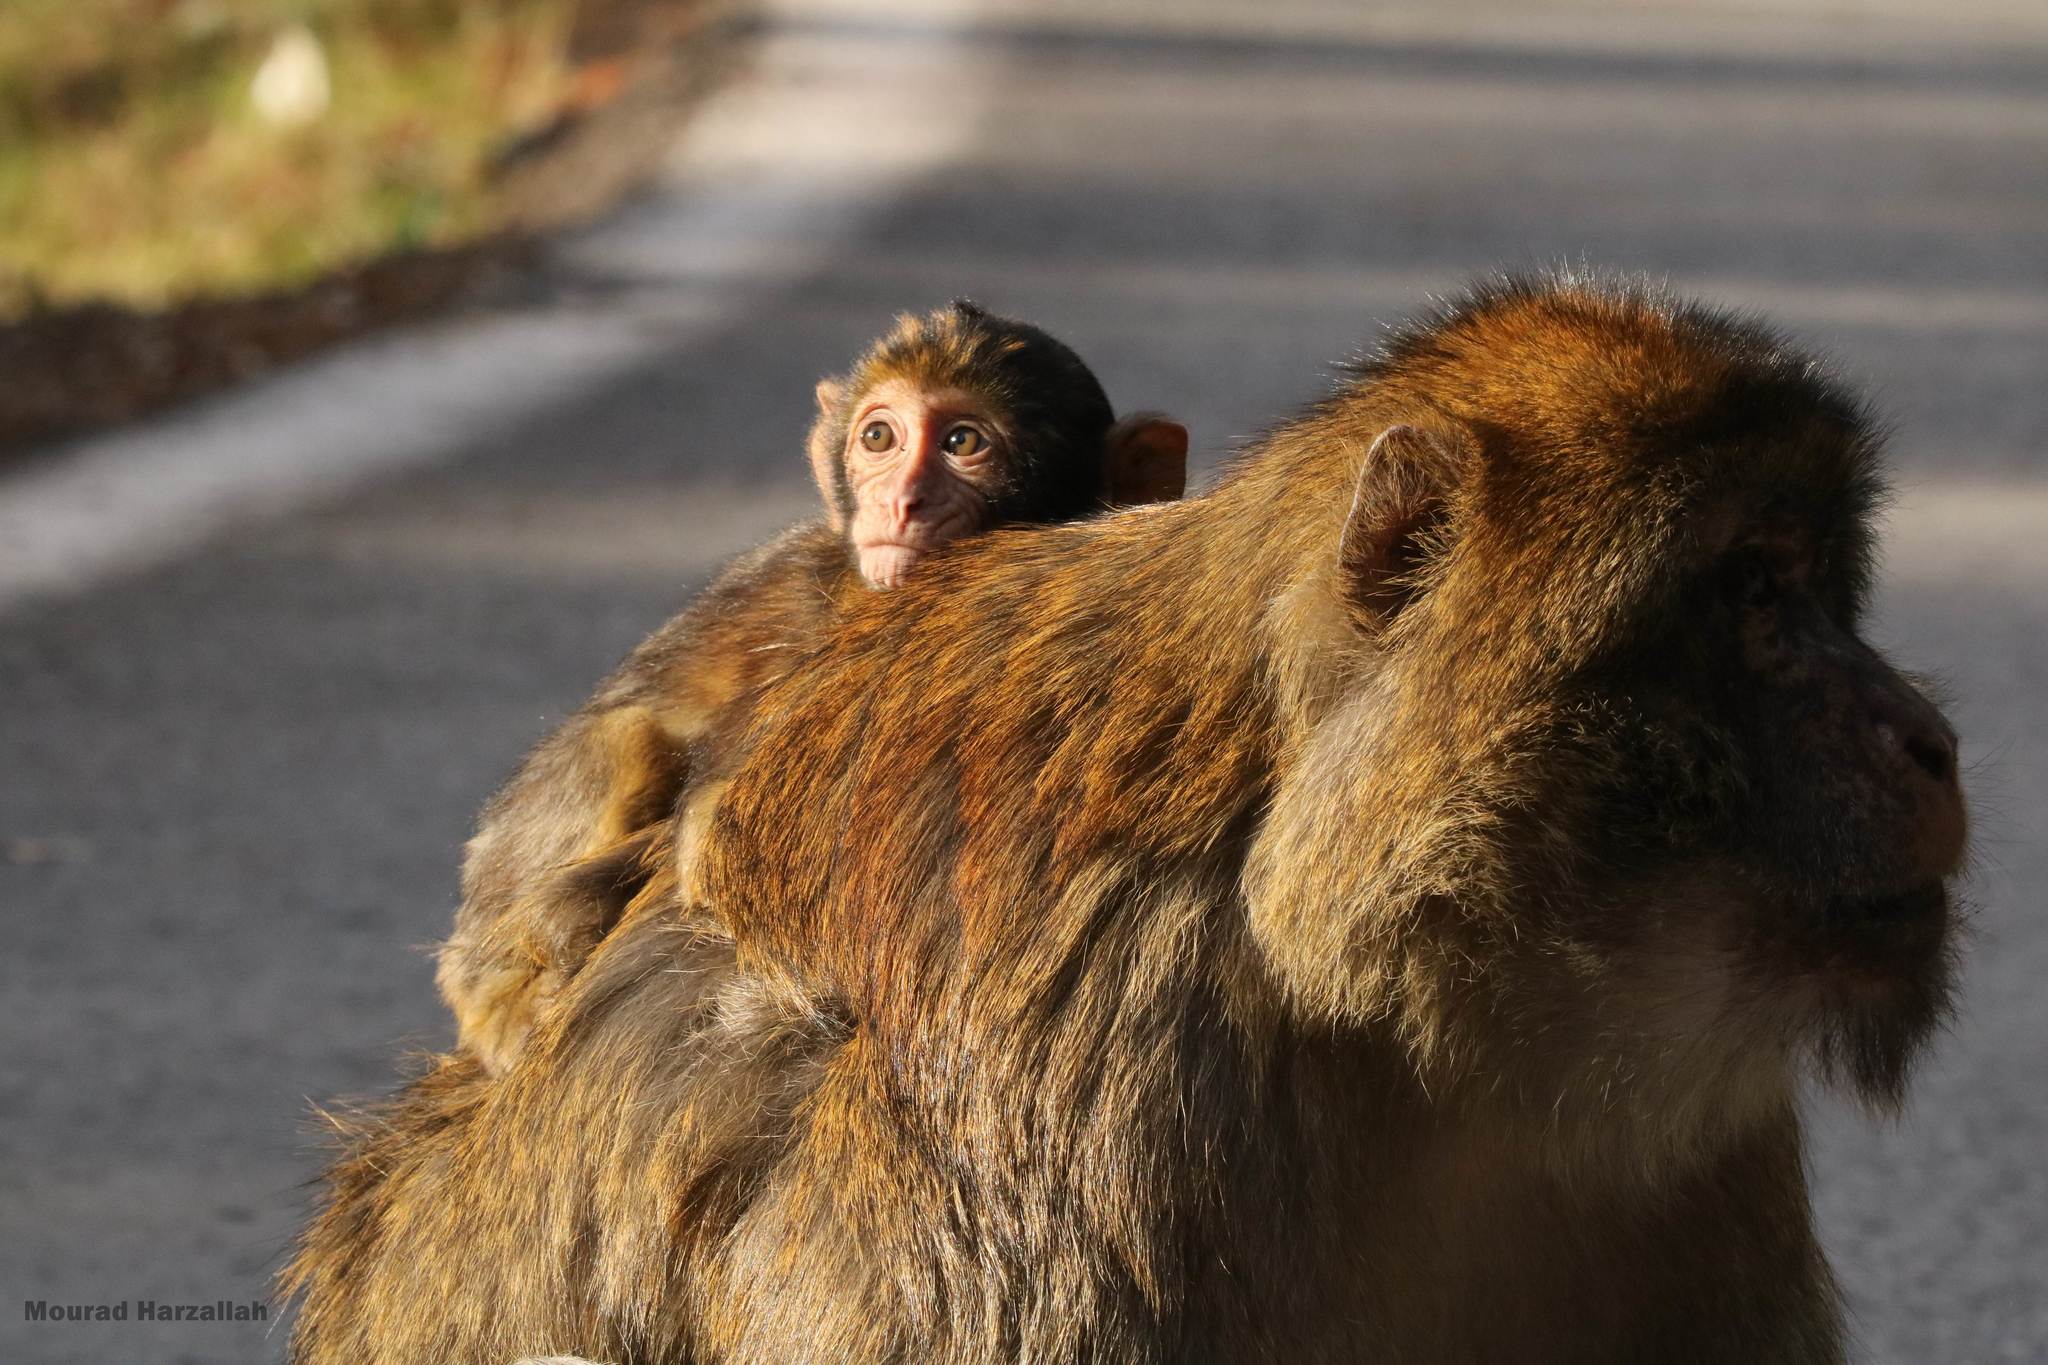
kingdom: Animalia
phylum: Chordata
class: Mammalia
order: Primates
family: Cercopithecidae
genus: Macaca
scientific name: Macaca sylvanus
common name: Barbary macaque
